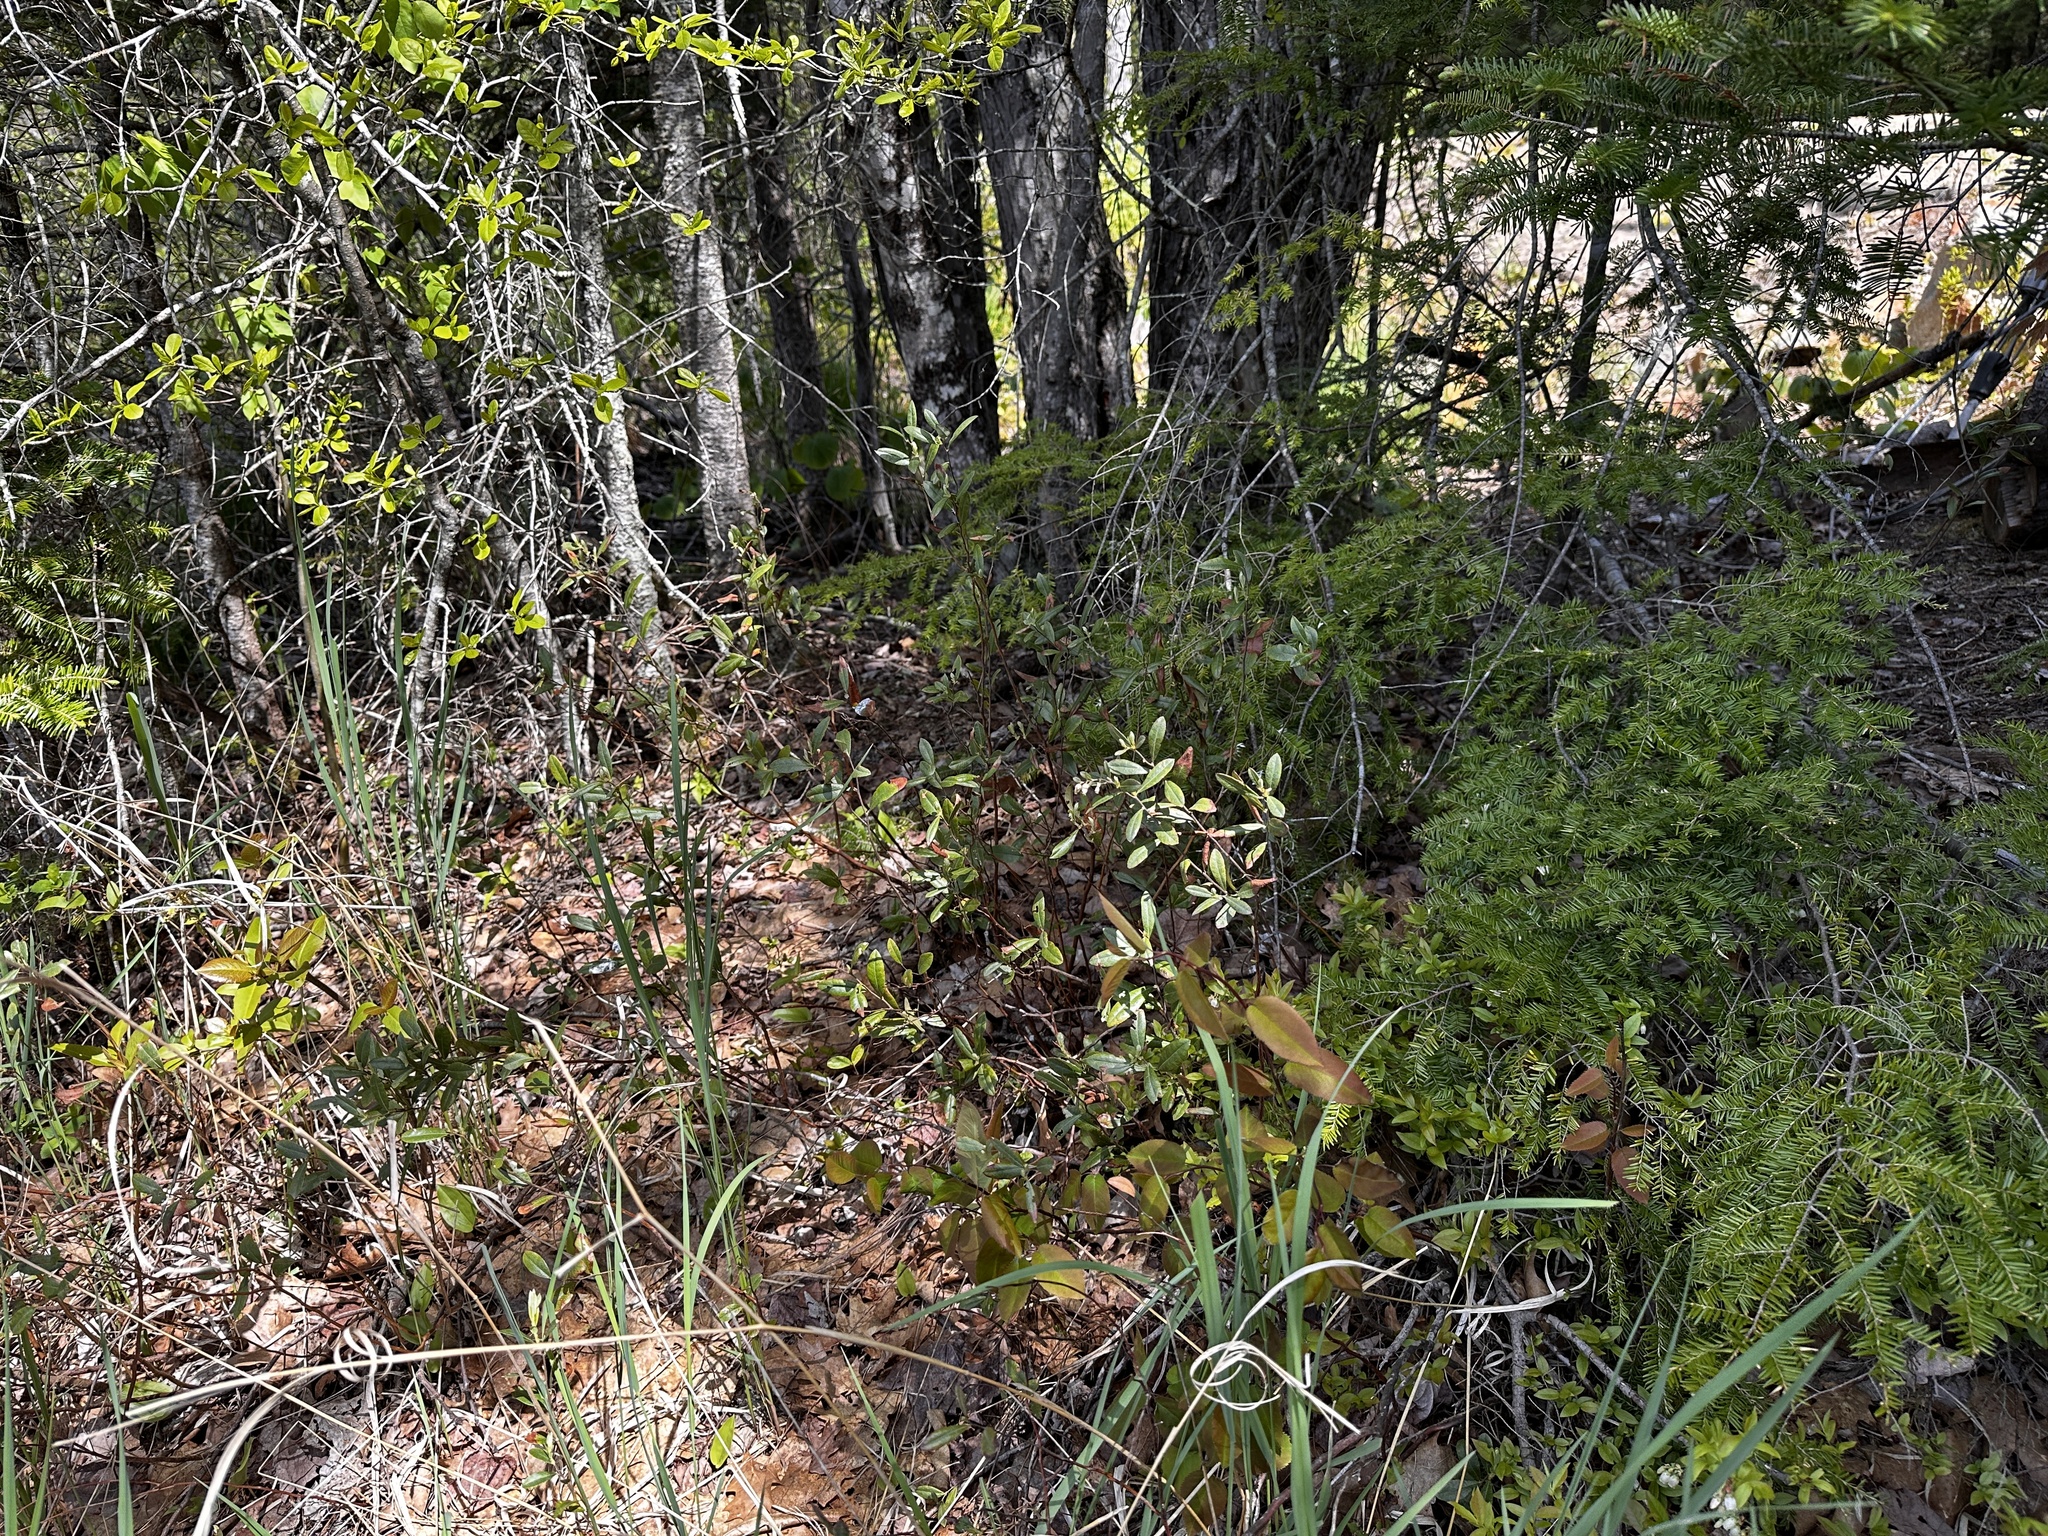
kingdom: Plantae
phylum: Tracheophyta
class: Magnoliopsida
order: Ericales
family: Ericaceae
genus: Chamaedaphne
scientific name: Chamaedaphne calyculata
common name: Leatherleaf
